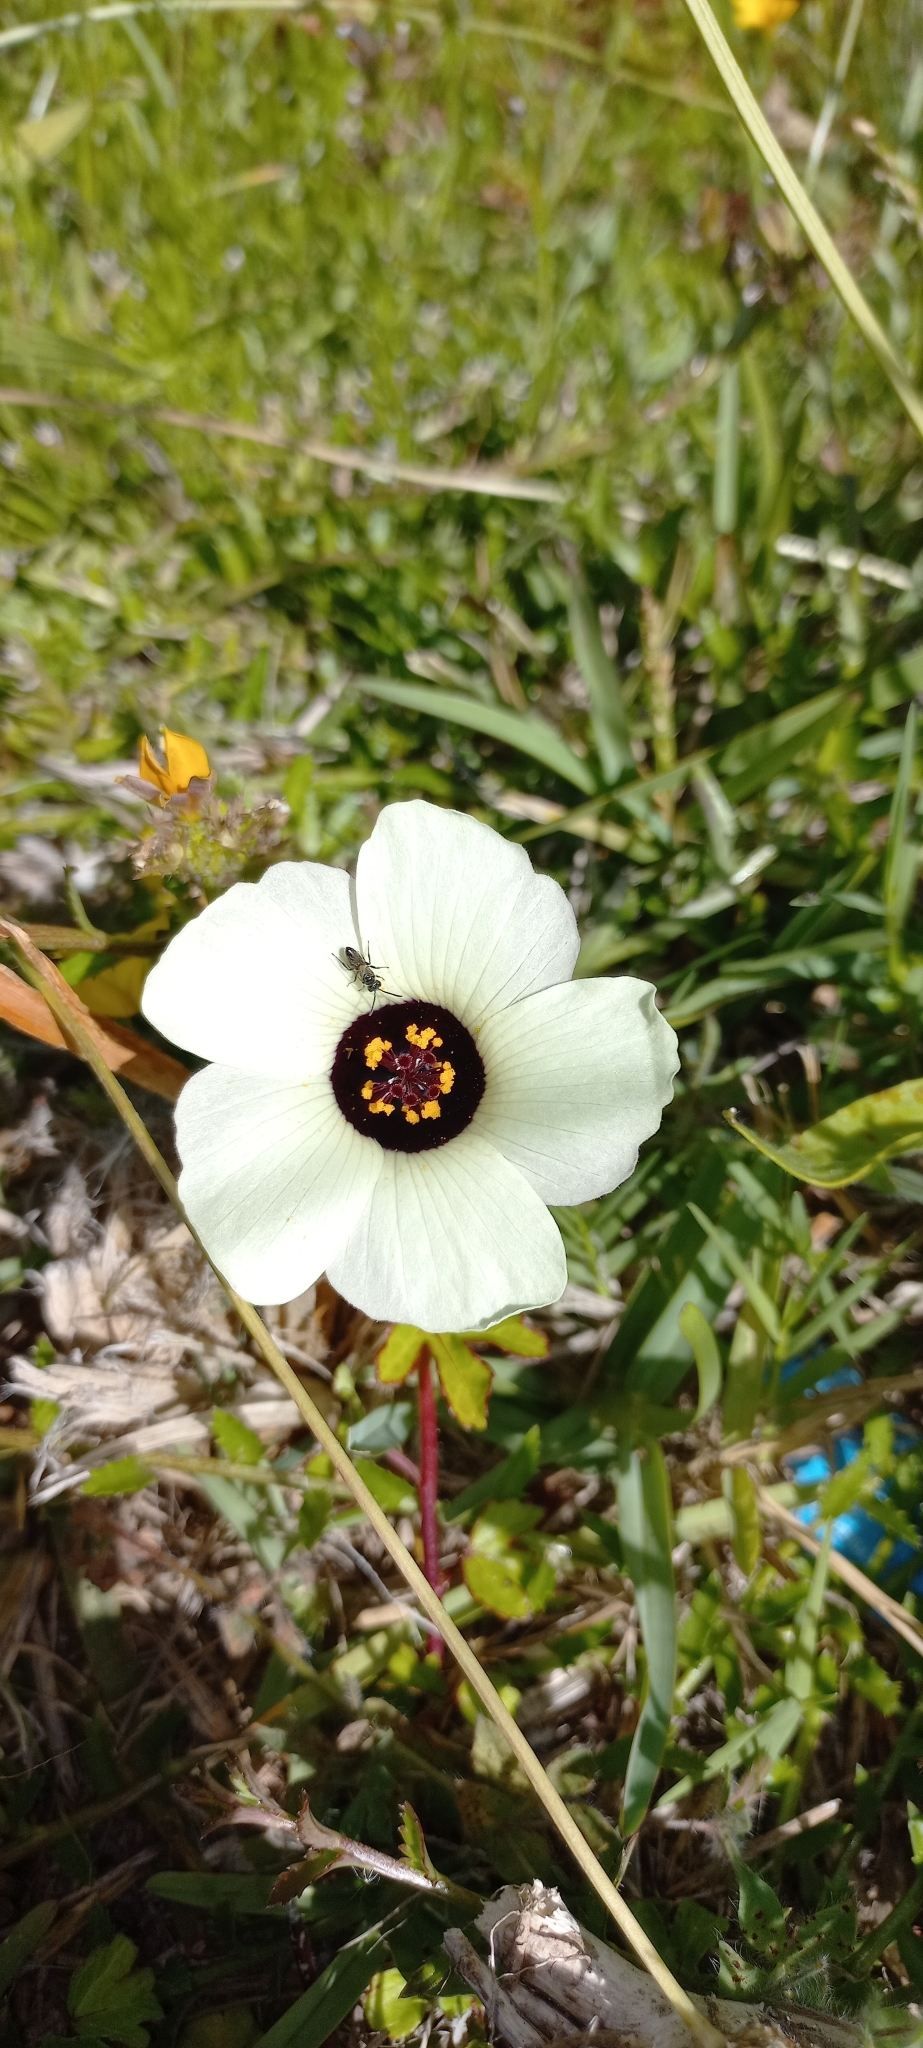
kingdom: Plantae
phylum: Tracheophyta
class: Magnoliopsida
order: Malvales
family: Malvaceae
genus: Hibiscus
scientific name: Hibiscus trionum
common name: Bladder ketmia
